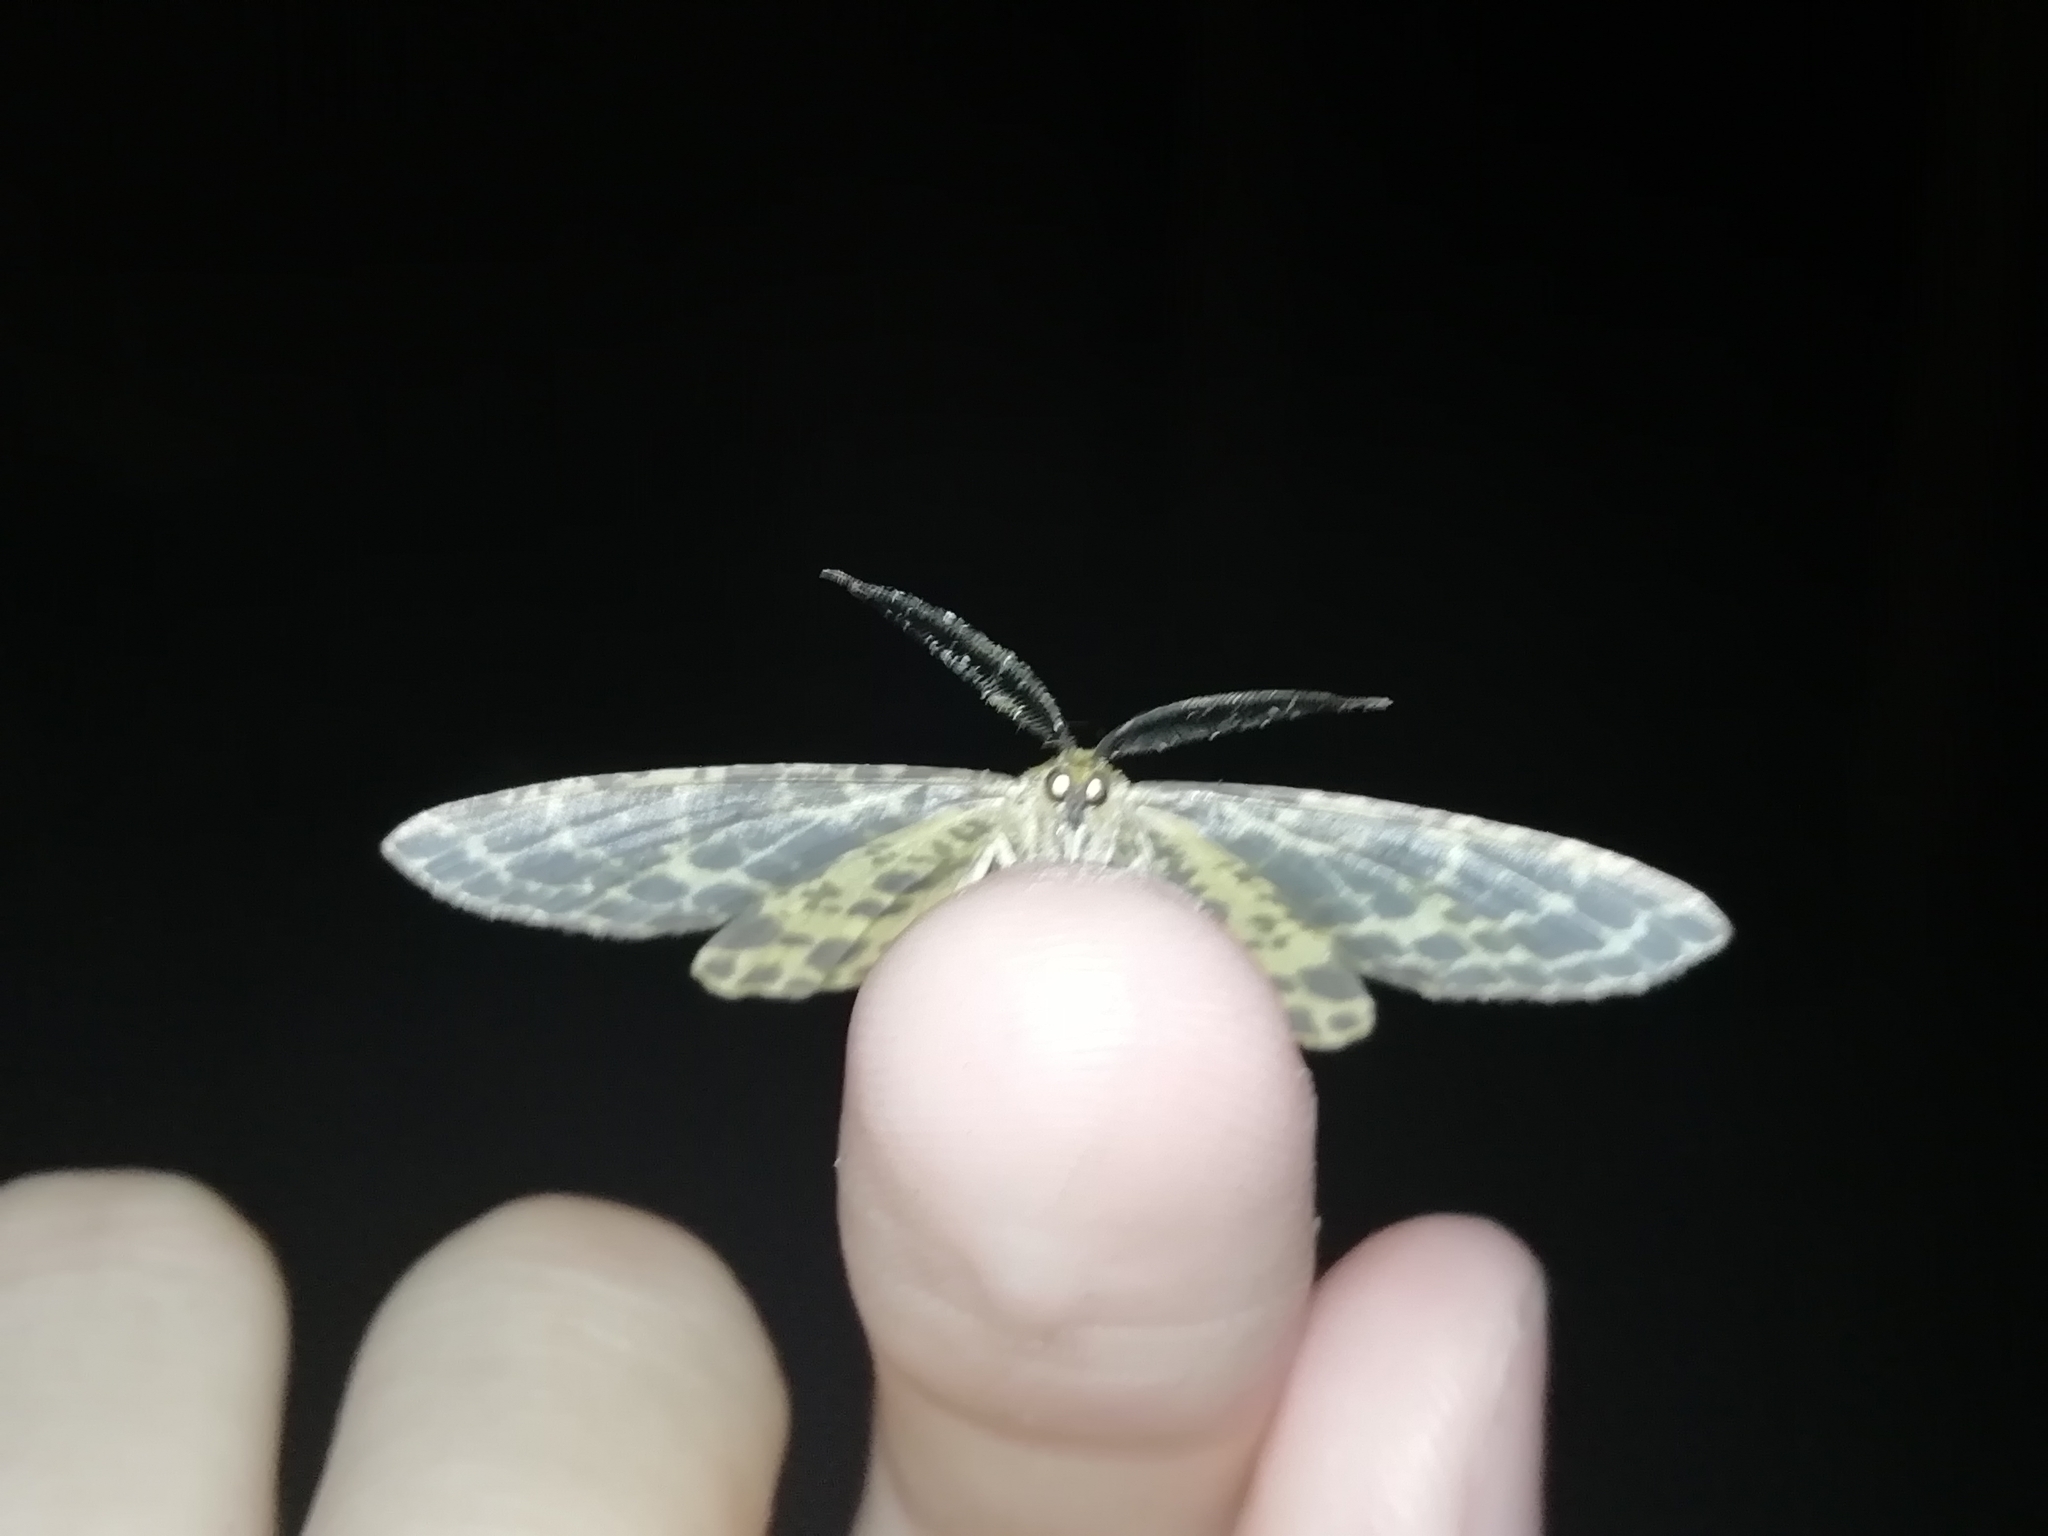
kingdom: Animalia
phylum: Arthropoda
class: Insecta
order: Lepidoptera
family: Geometridae
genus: Arichanna
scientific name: Arichanna melanaria
